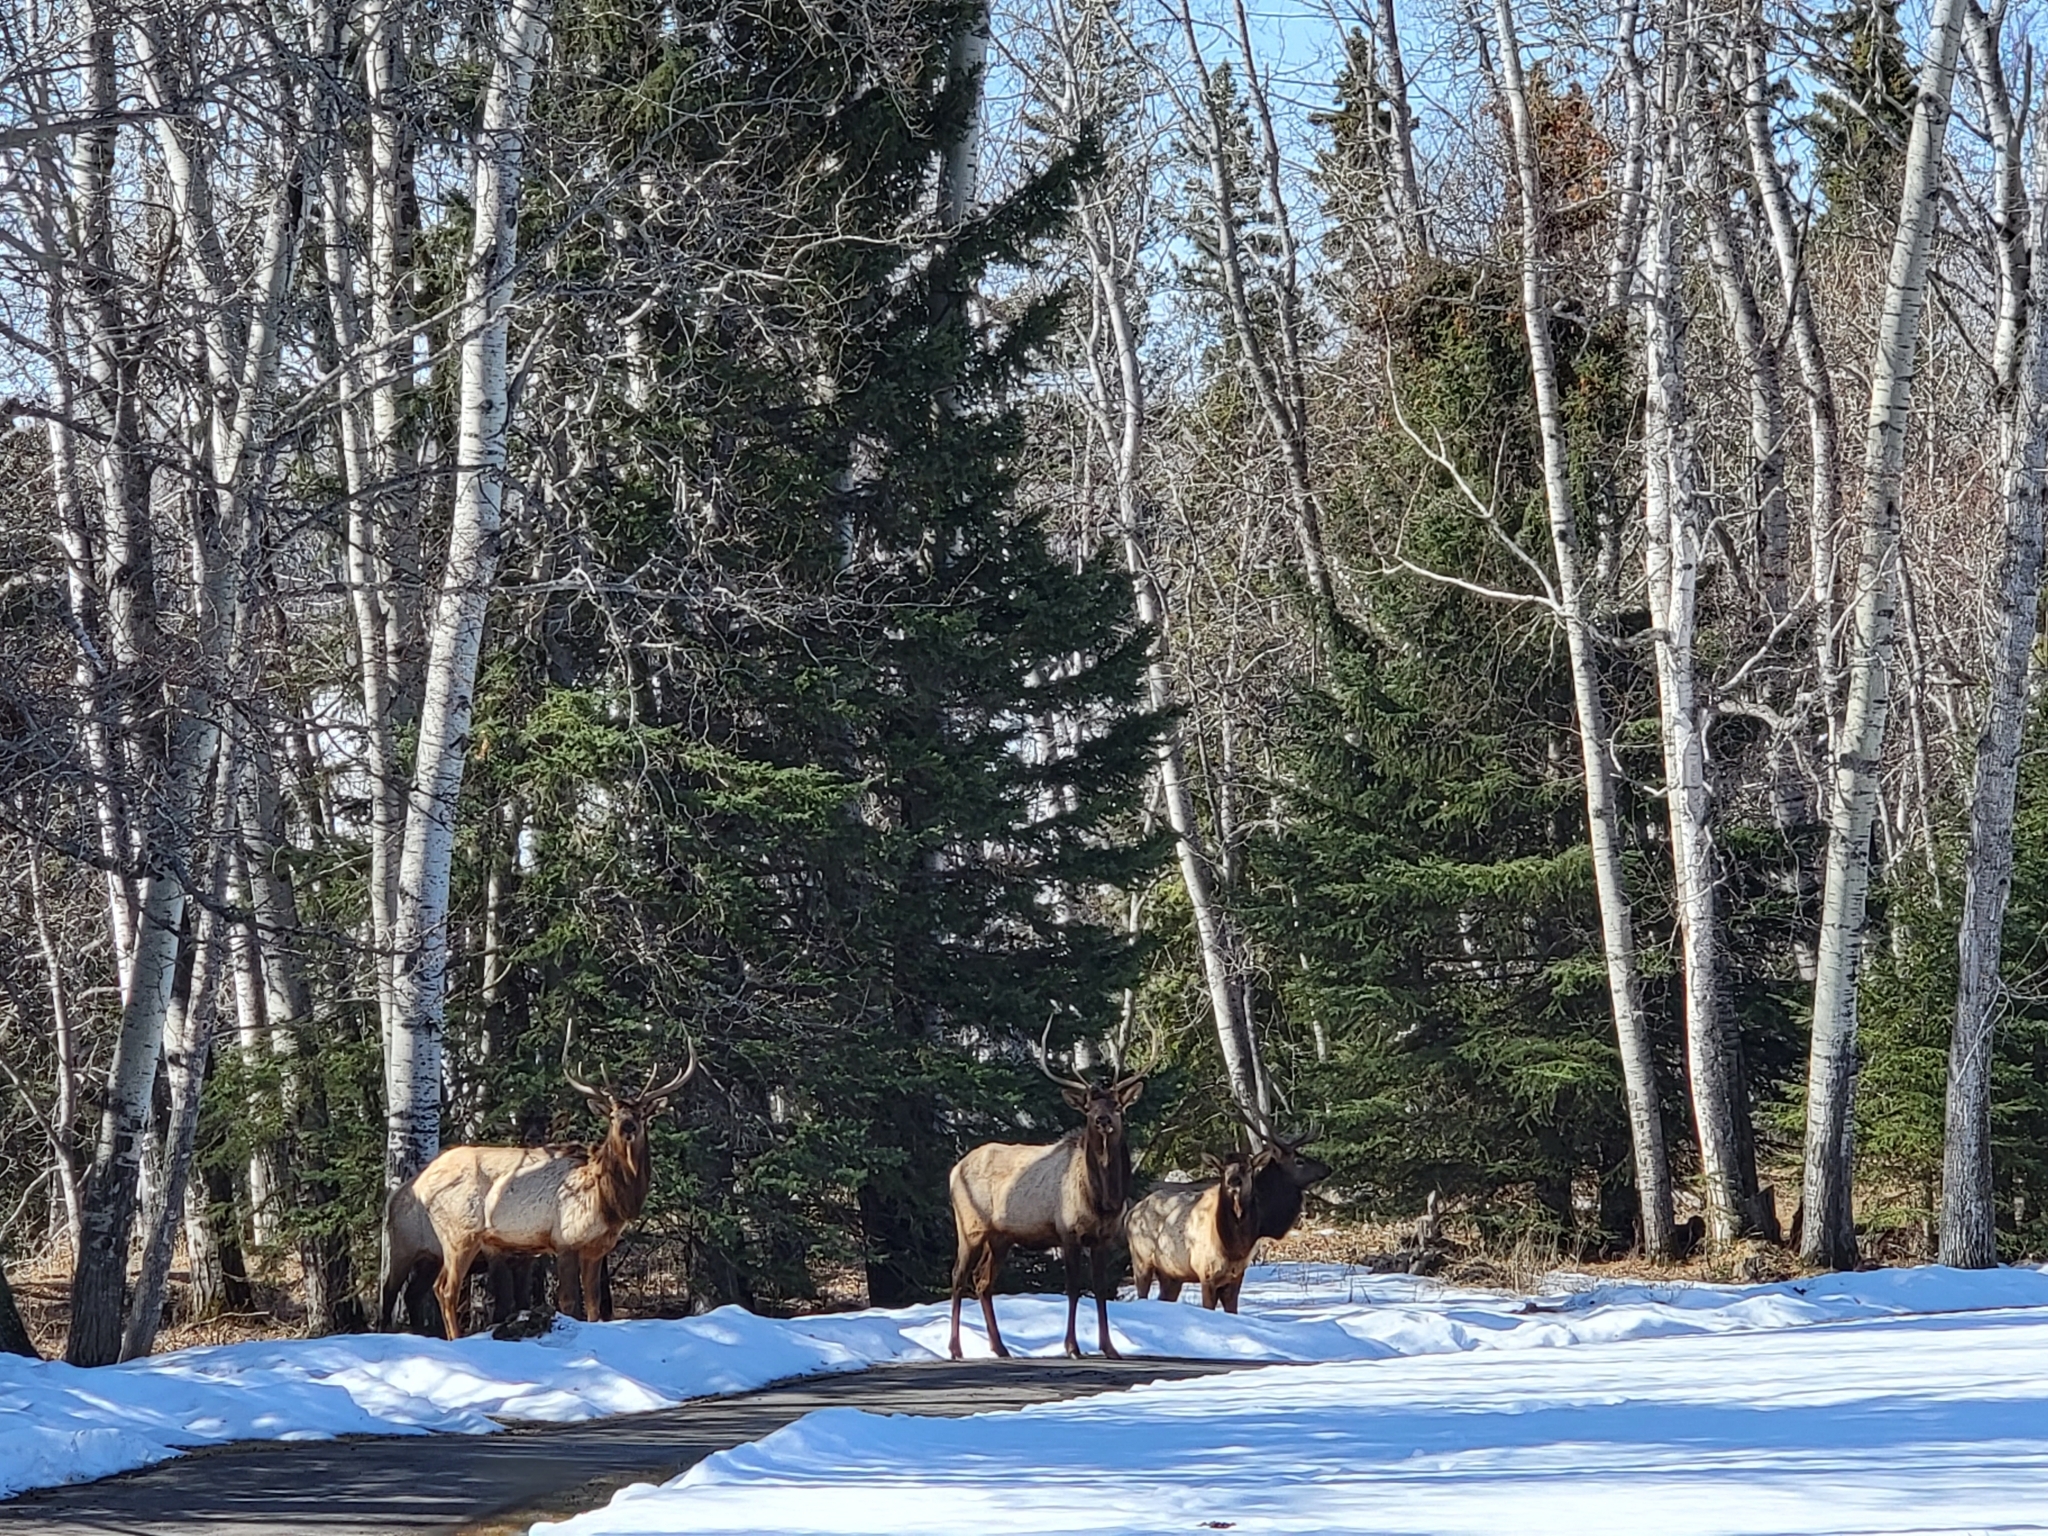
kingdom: Animalia
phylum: Chordata
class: Mammalia
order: Artiodactyla
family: Cervidae
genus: Cervus
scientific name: Cervus elaphus
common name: Red deer
